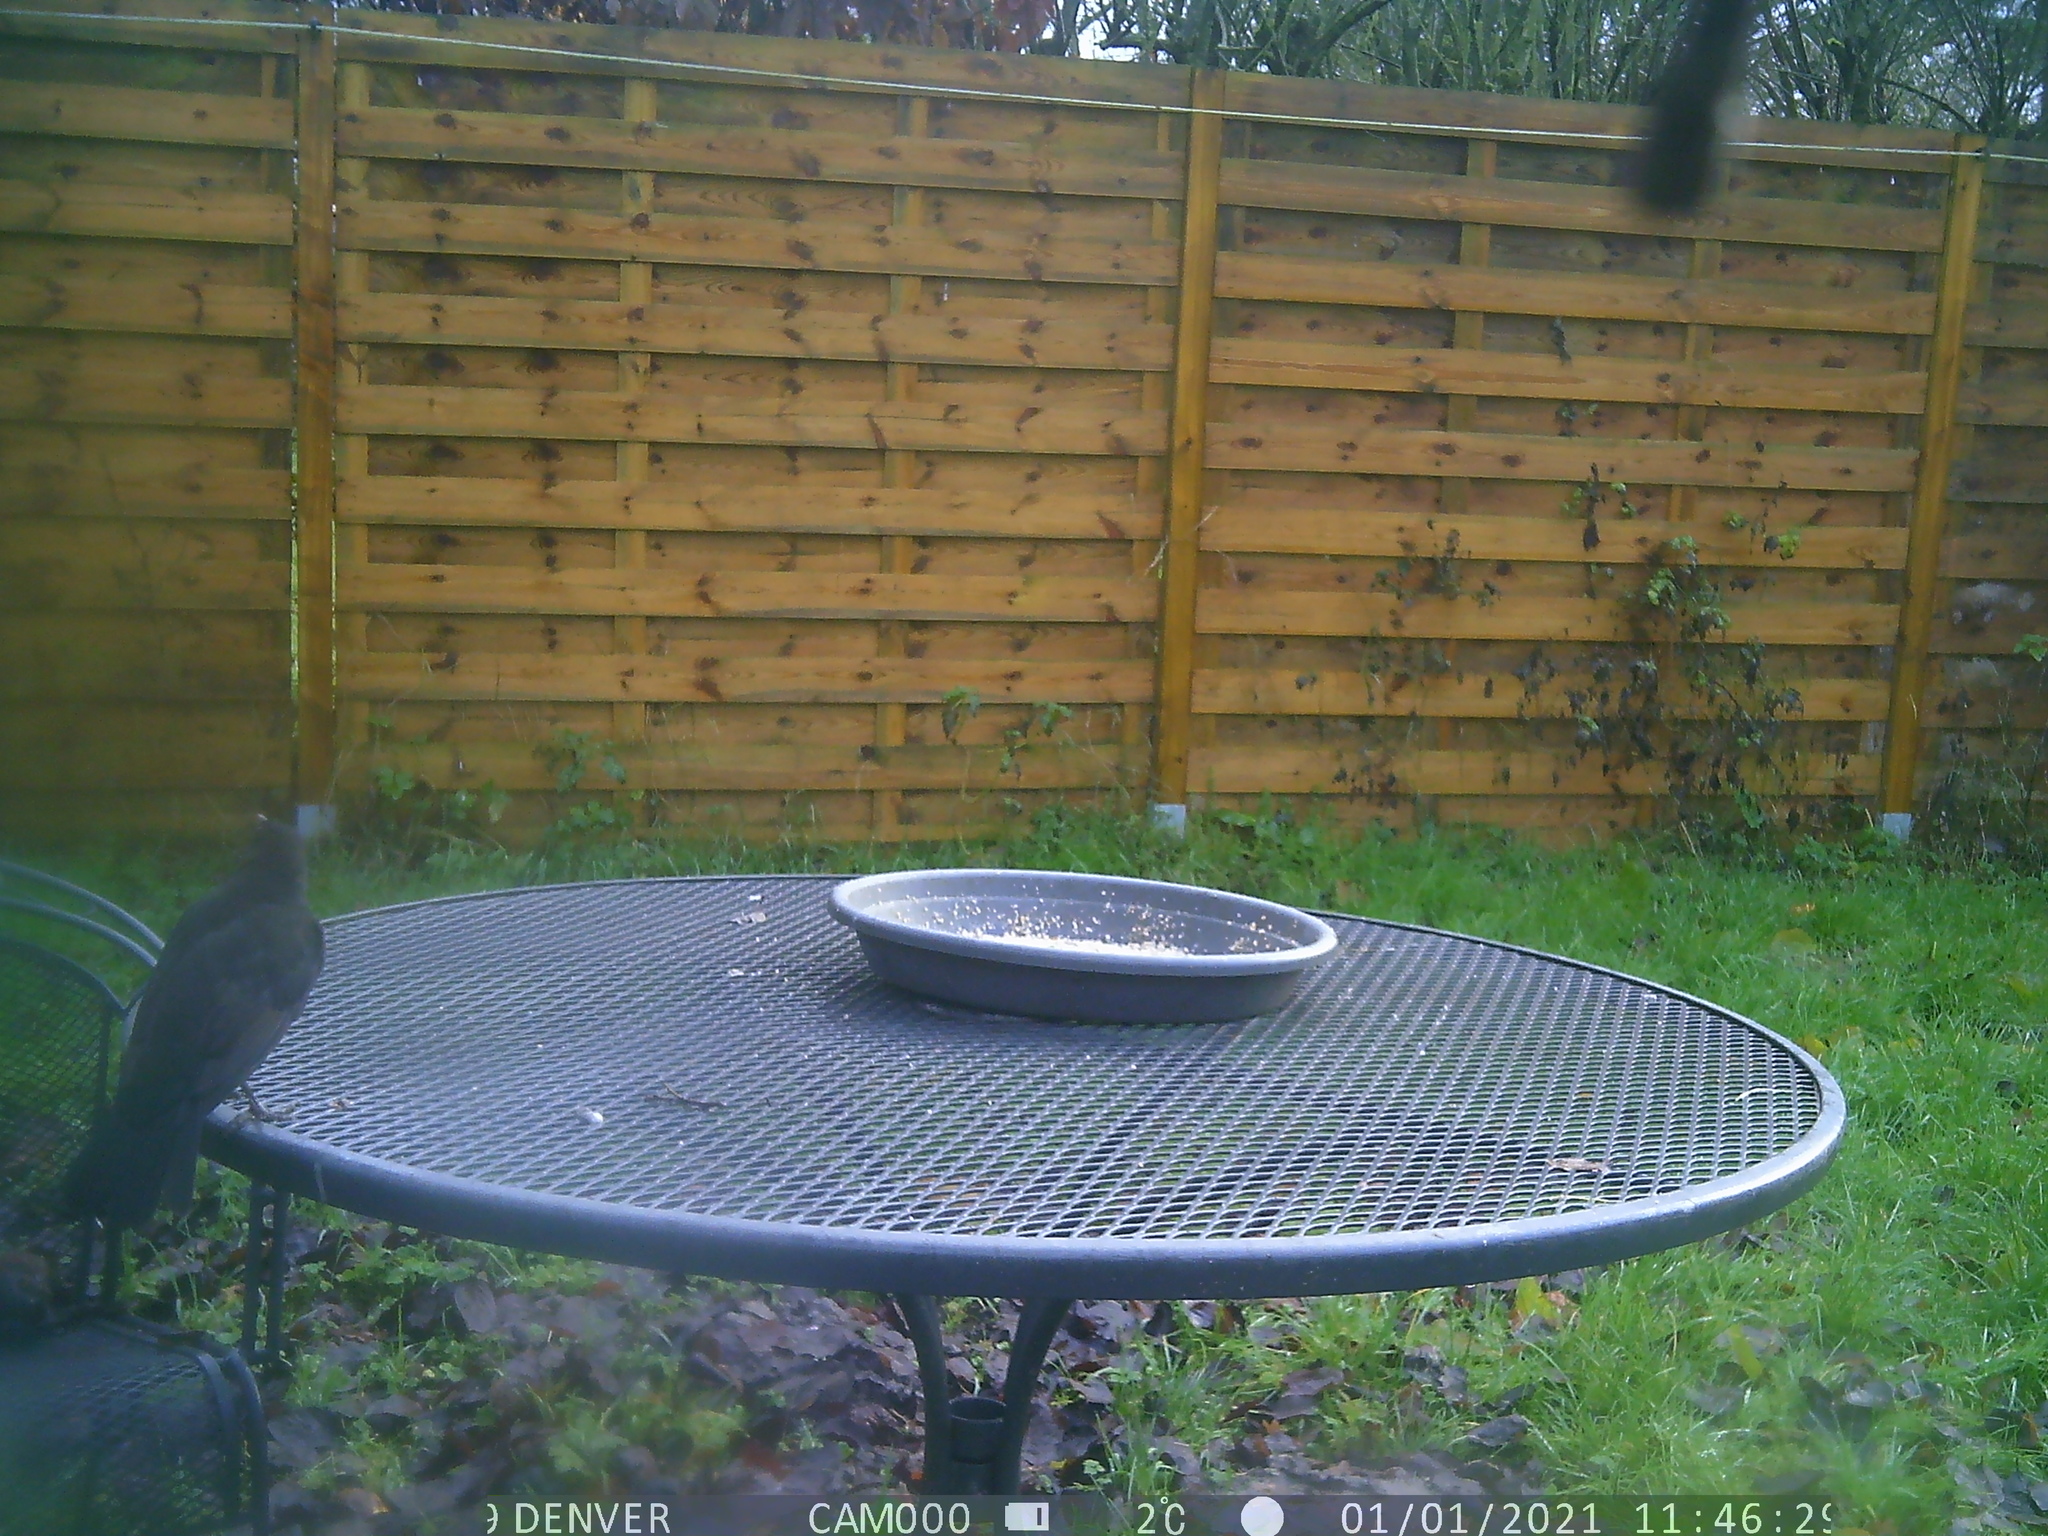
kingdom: Animalia
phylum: Chordata
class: Aves
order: Passeriformes
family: Turdidae
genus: Turdus
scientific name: Turdus merula
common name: Common blackbird
